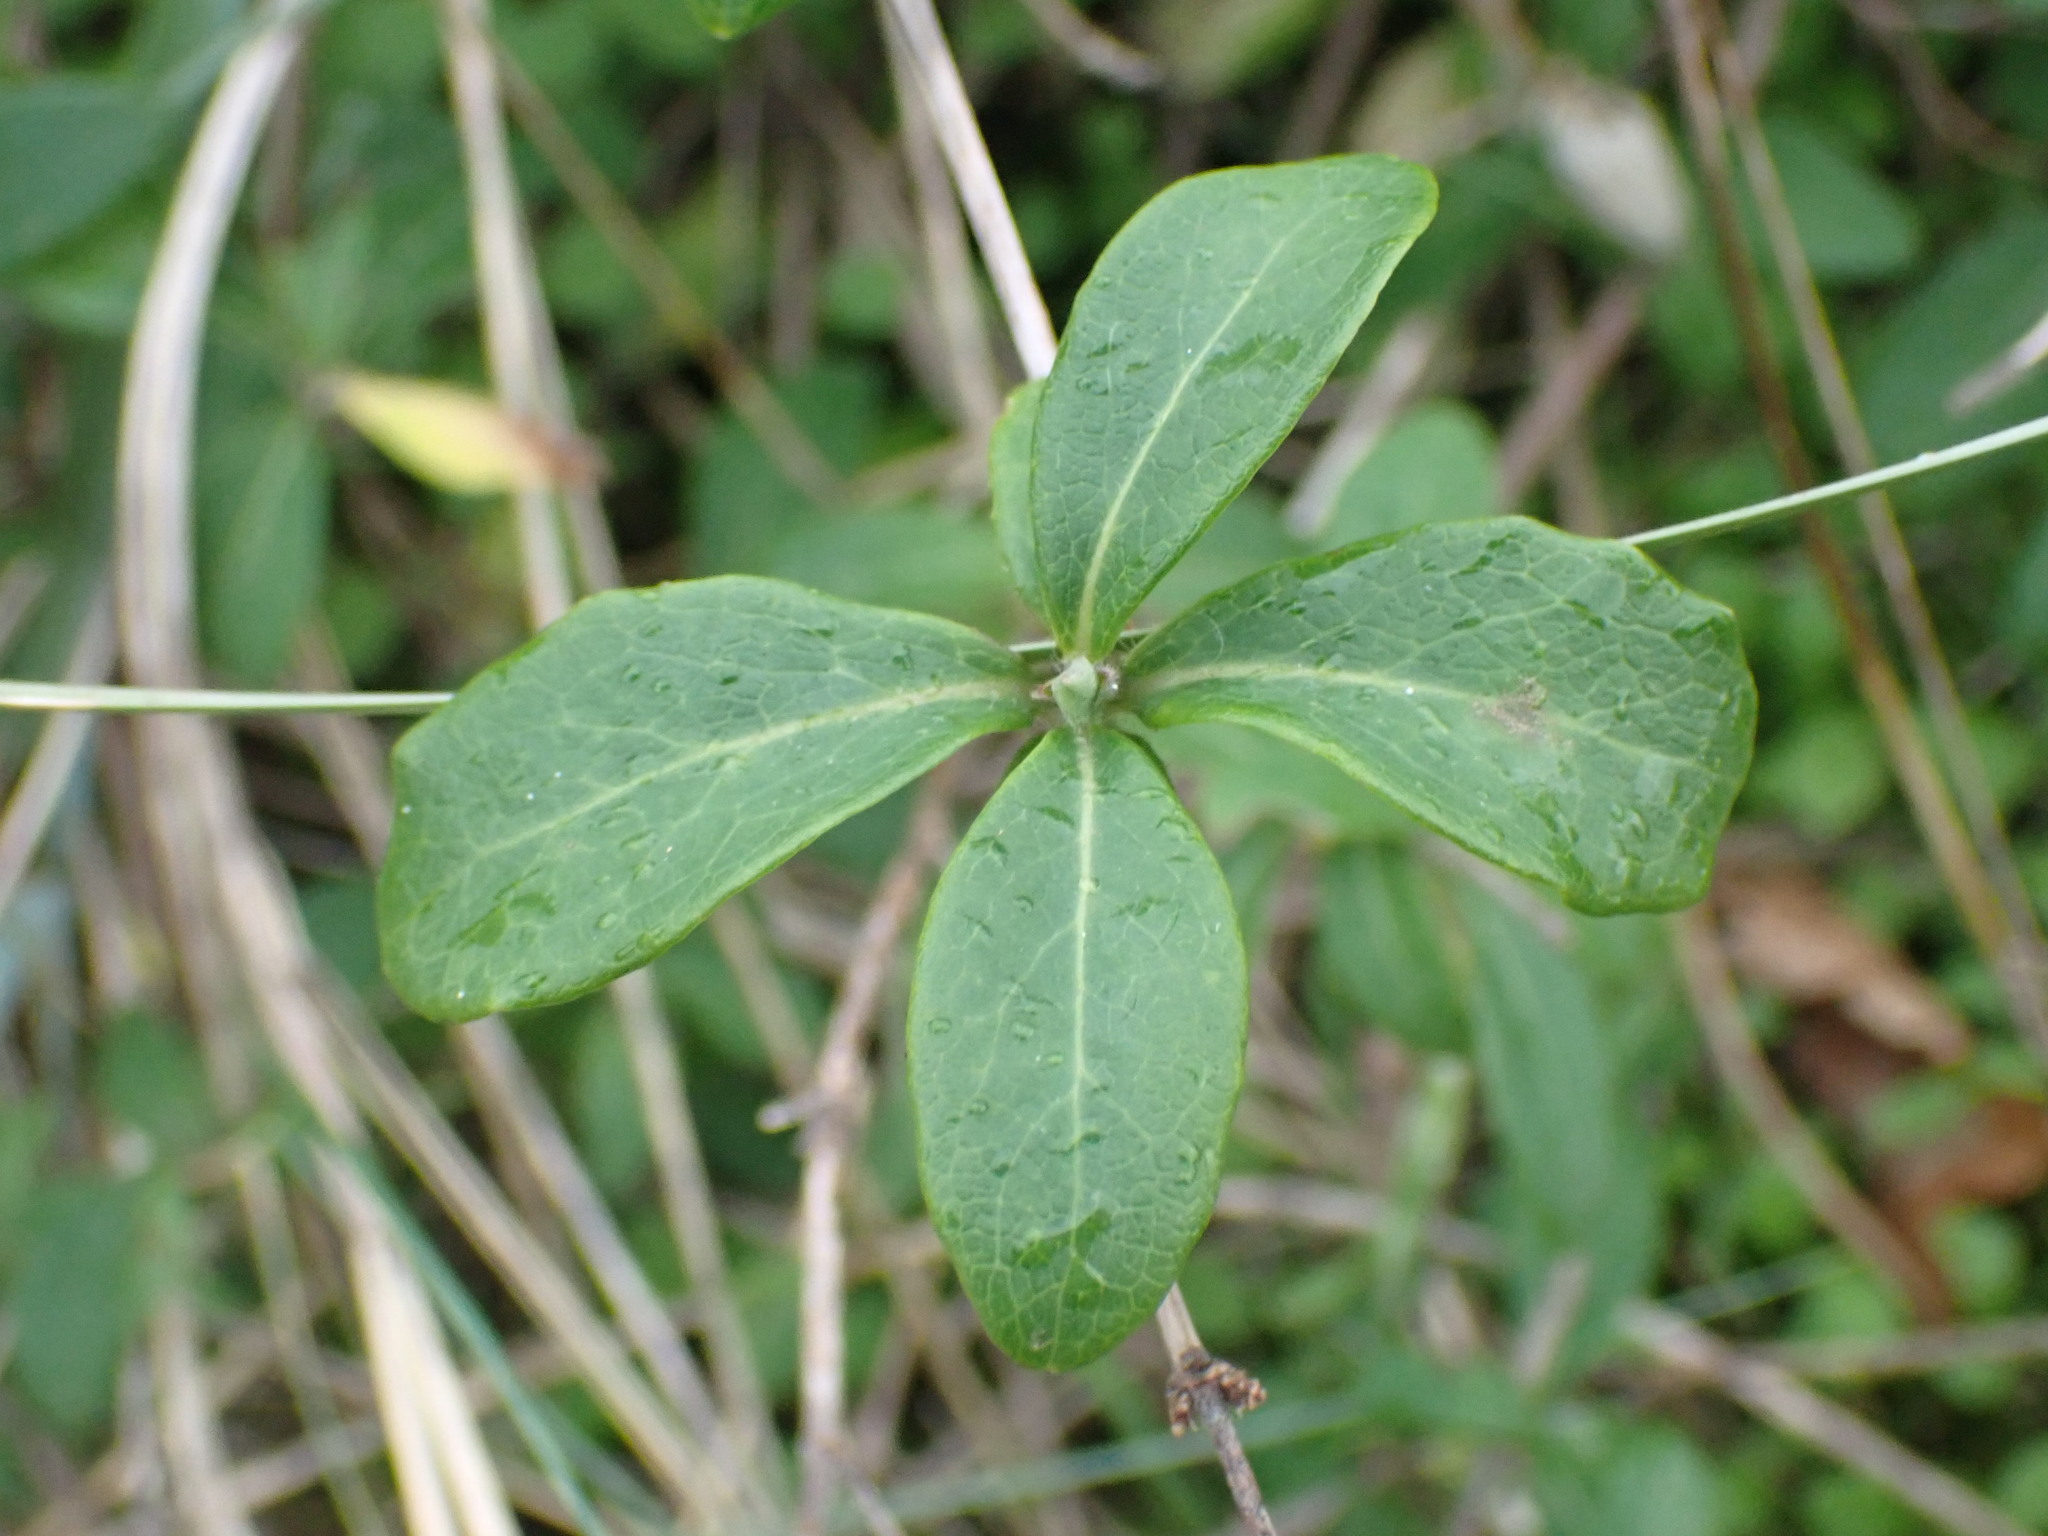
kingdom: Plantae
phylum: Tracheophyta
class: Magnoliopsida
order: Dipsacales
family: Caprifoliaceae
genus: Lonicera
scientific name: Lonicera periclymenum
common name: European honeysuckle
